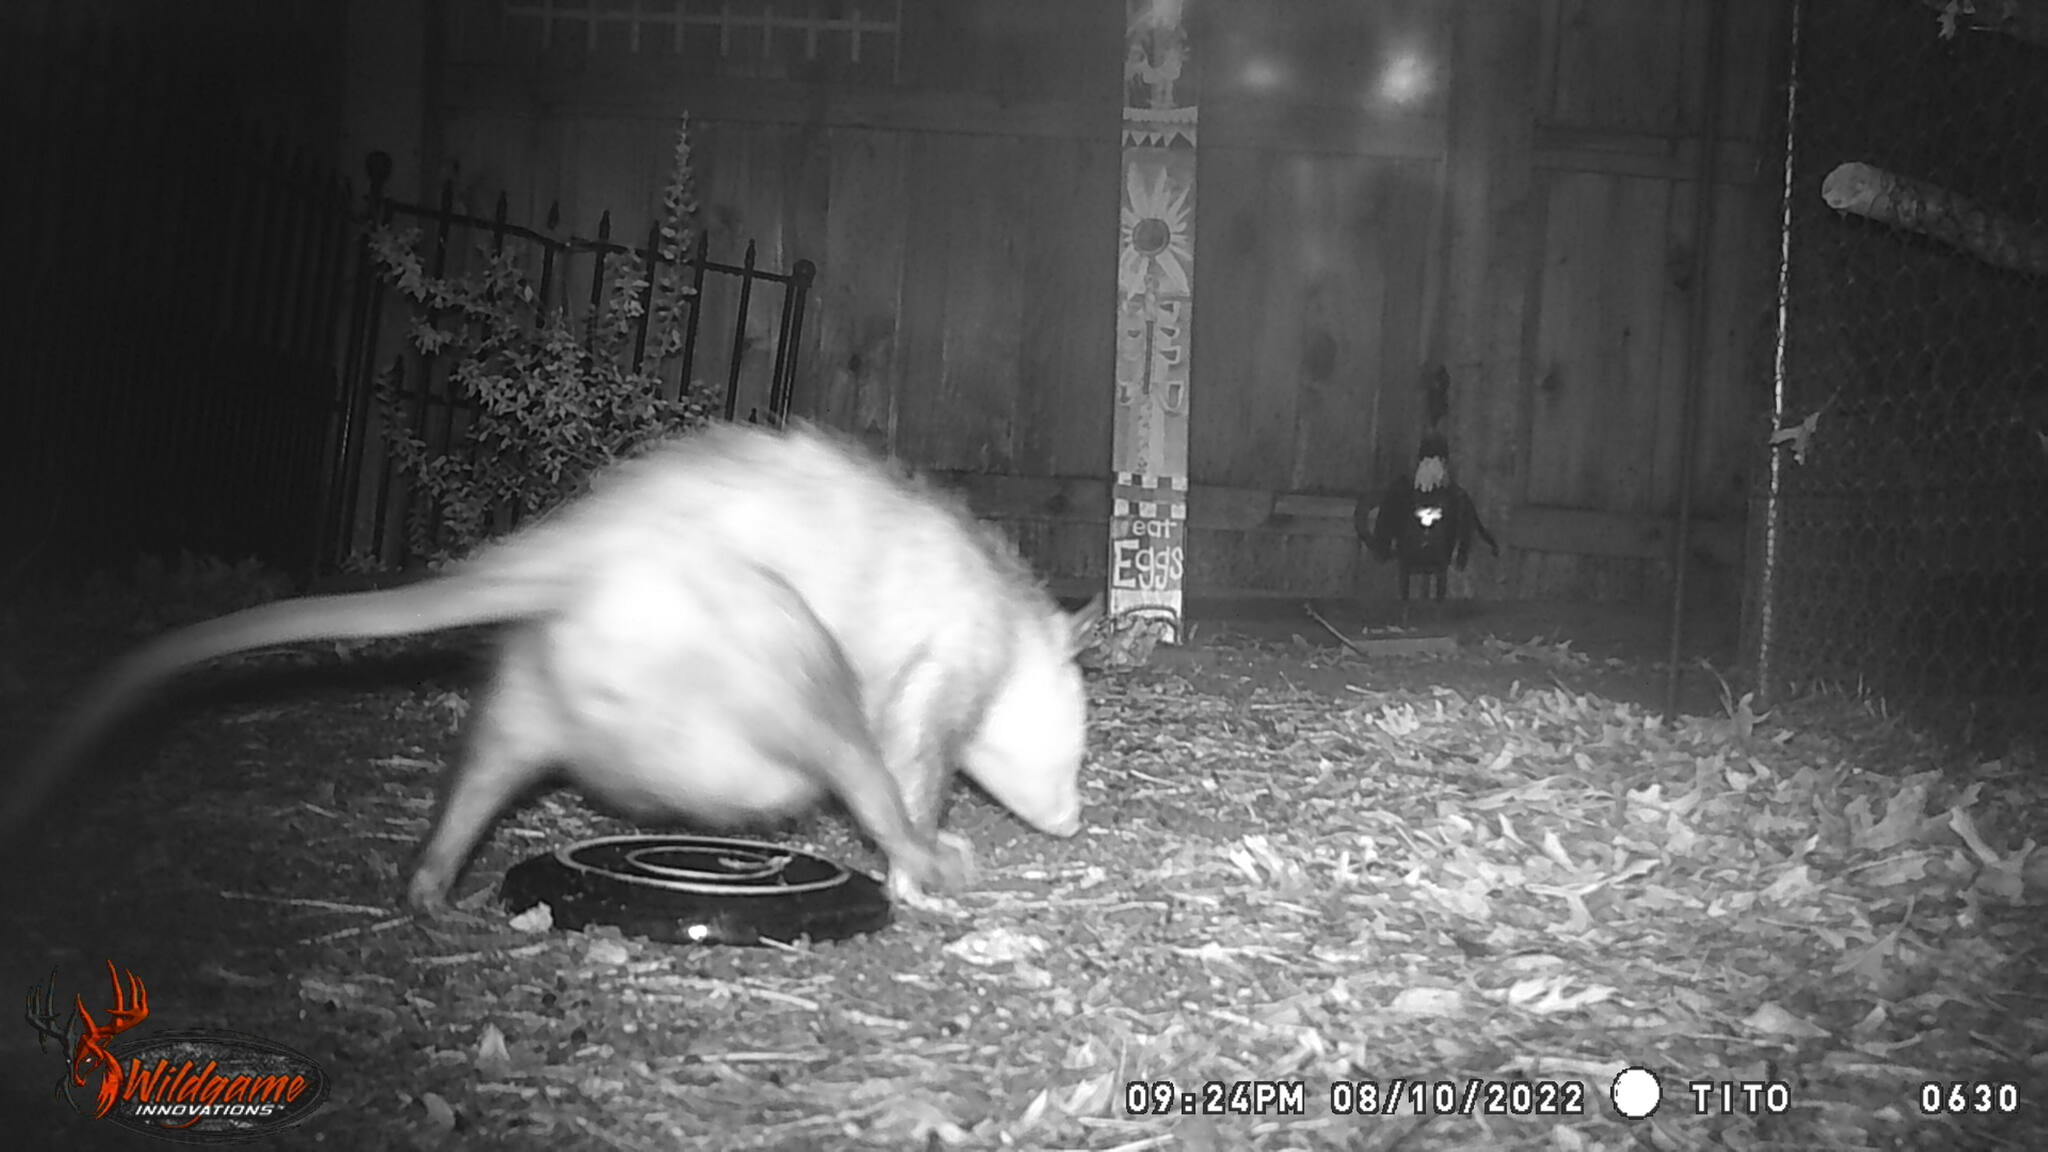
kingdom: Animalia
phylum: Chordata
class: Mammalia
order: Didelphimorphia
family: Didelphidae
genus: Didelphis
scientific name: Didelphis virginiana
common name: Virginia opossum
